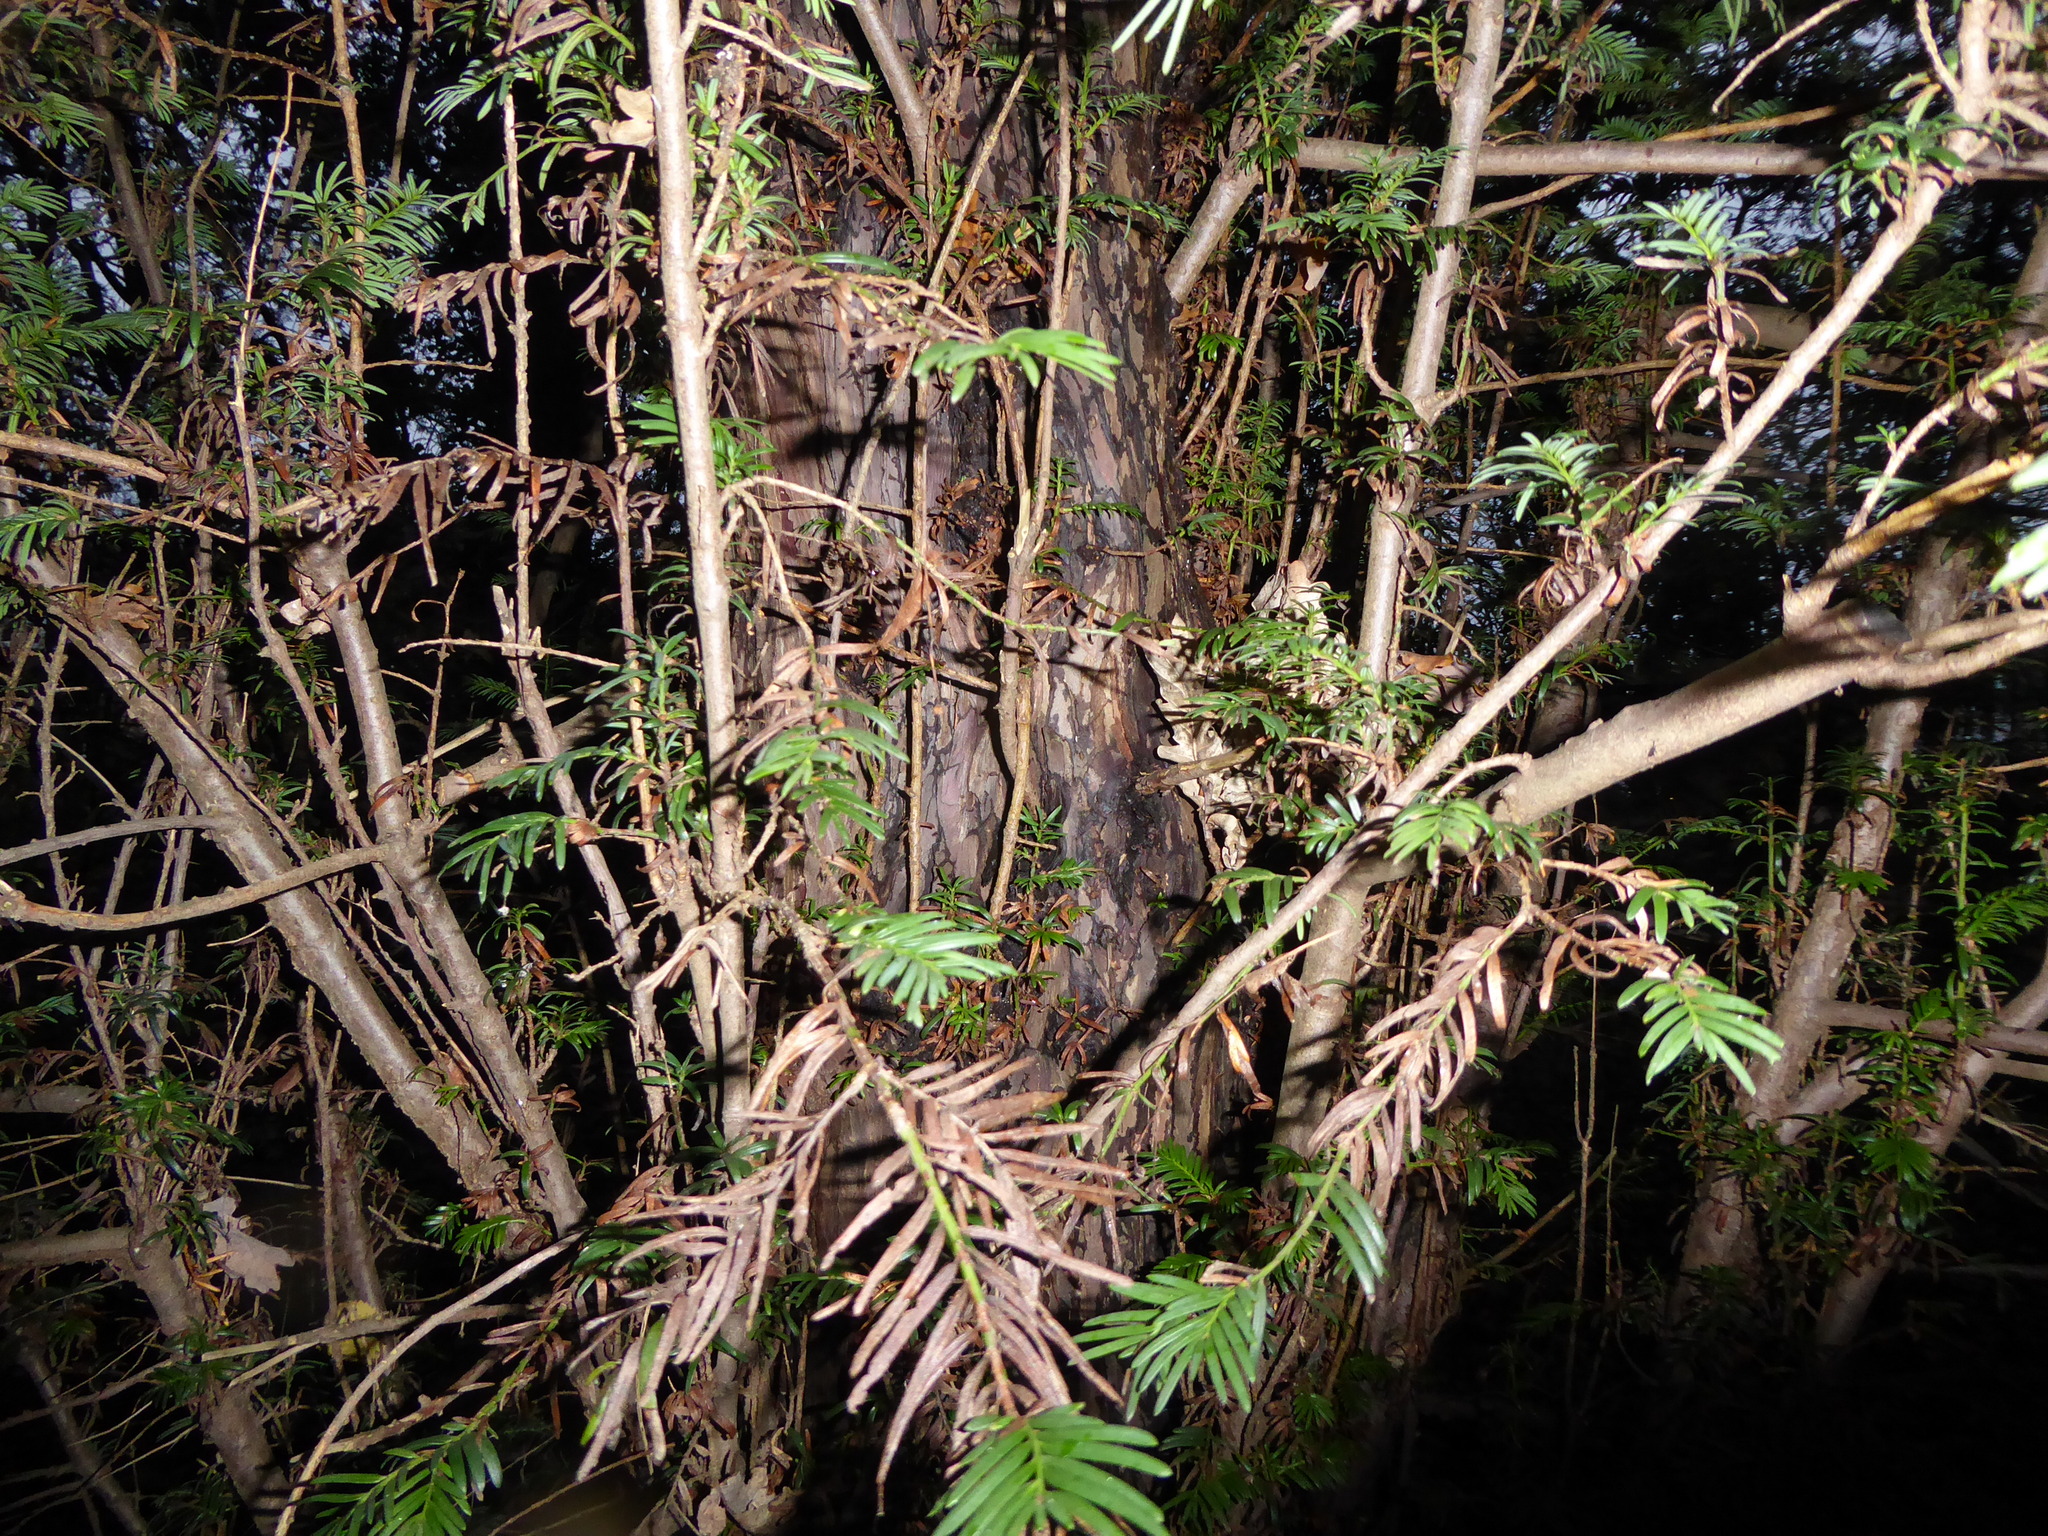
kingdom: Plantae
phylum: Tracheophyta
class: Pinopsida
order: Pinales
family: Taxaceae
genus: Taxus
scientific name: Taxus baccata
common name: Yew
